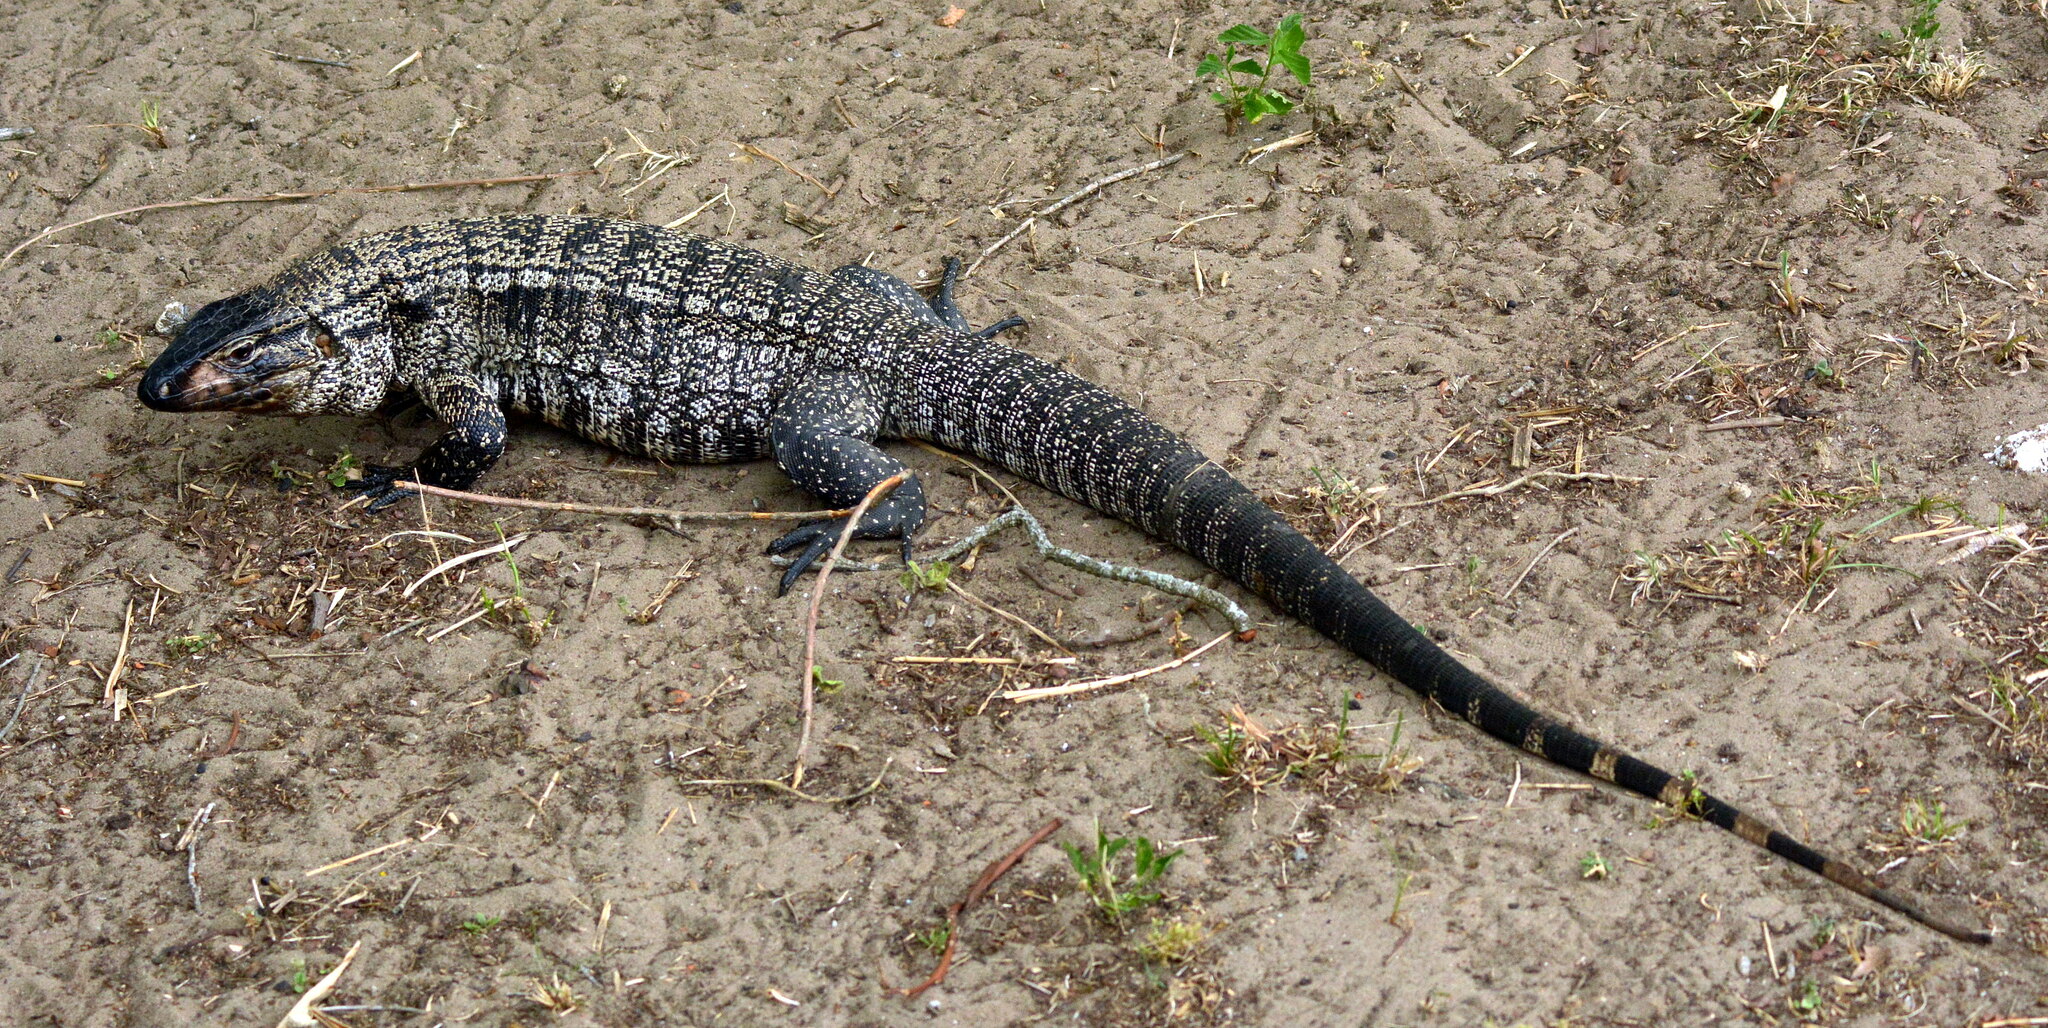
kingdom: Animalia
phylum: Chordata
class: Squamata
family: Teiidae
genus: Salvator
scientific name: Salvator merianae
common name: Argentine black and white tegu
